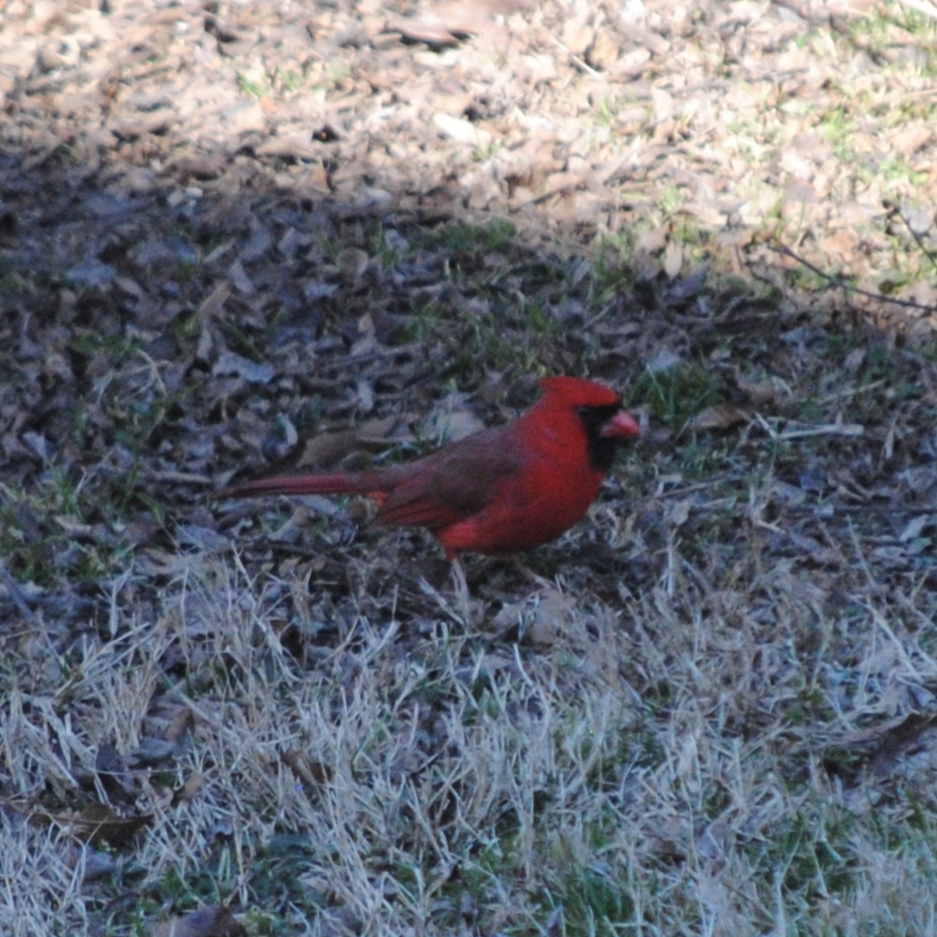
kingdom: Animalia
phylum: Chordata
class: Aves
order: Passeriformes
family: Cardinalidae
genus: Cardinalis
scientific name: Cardinalis cardinalis
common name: Northern cardinal
